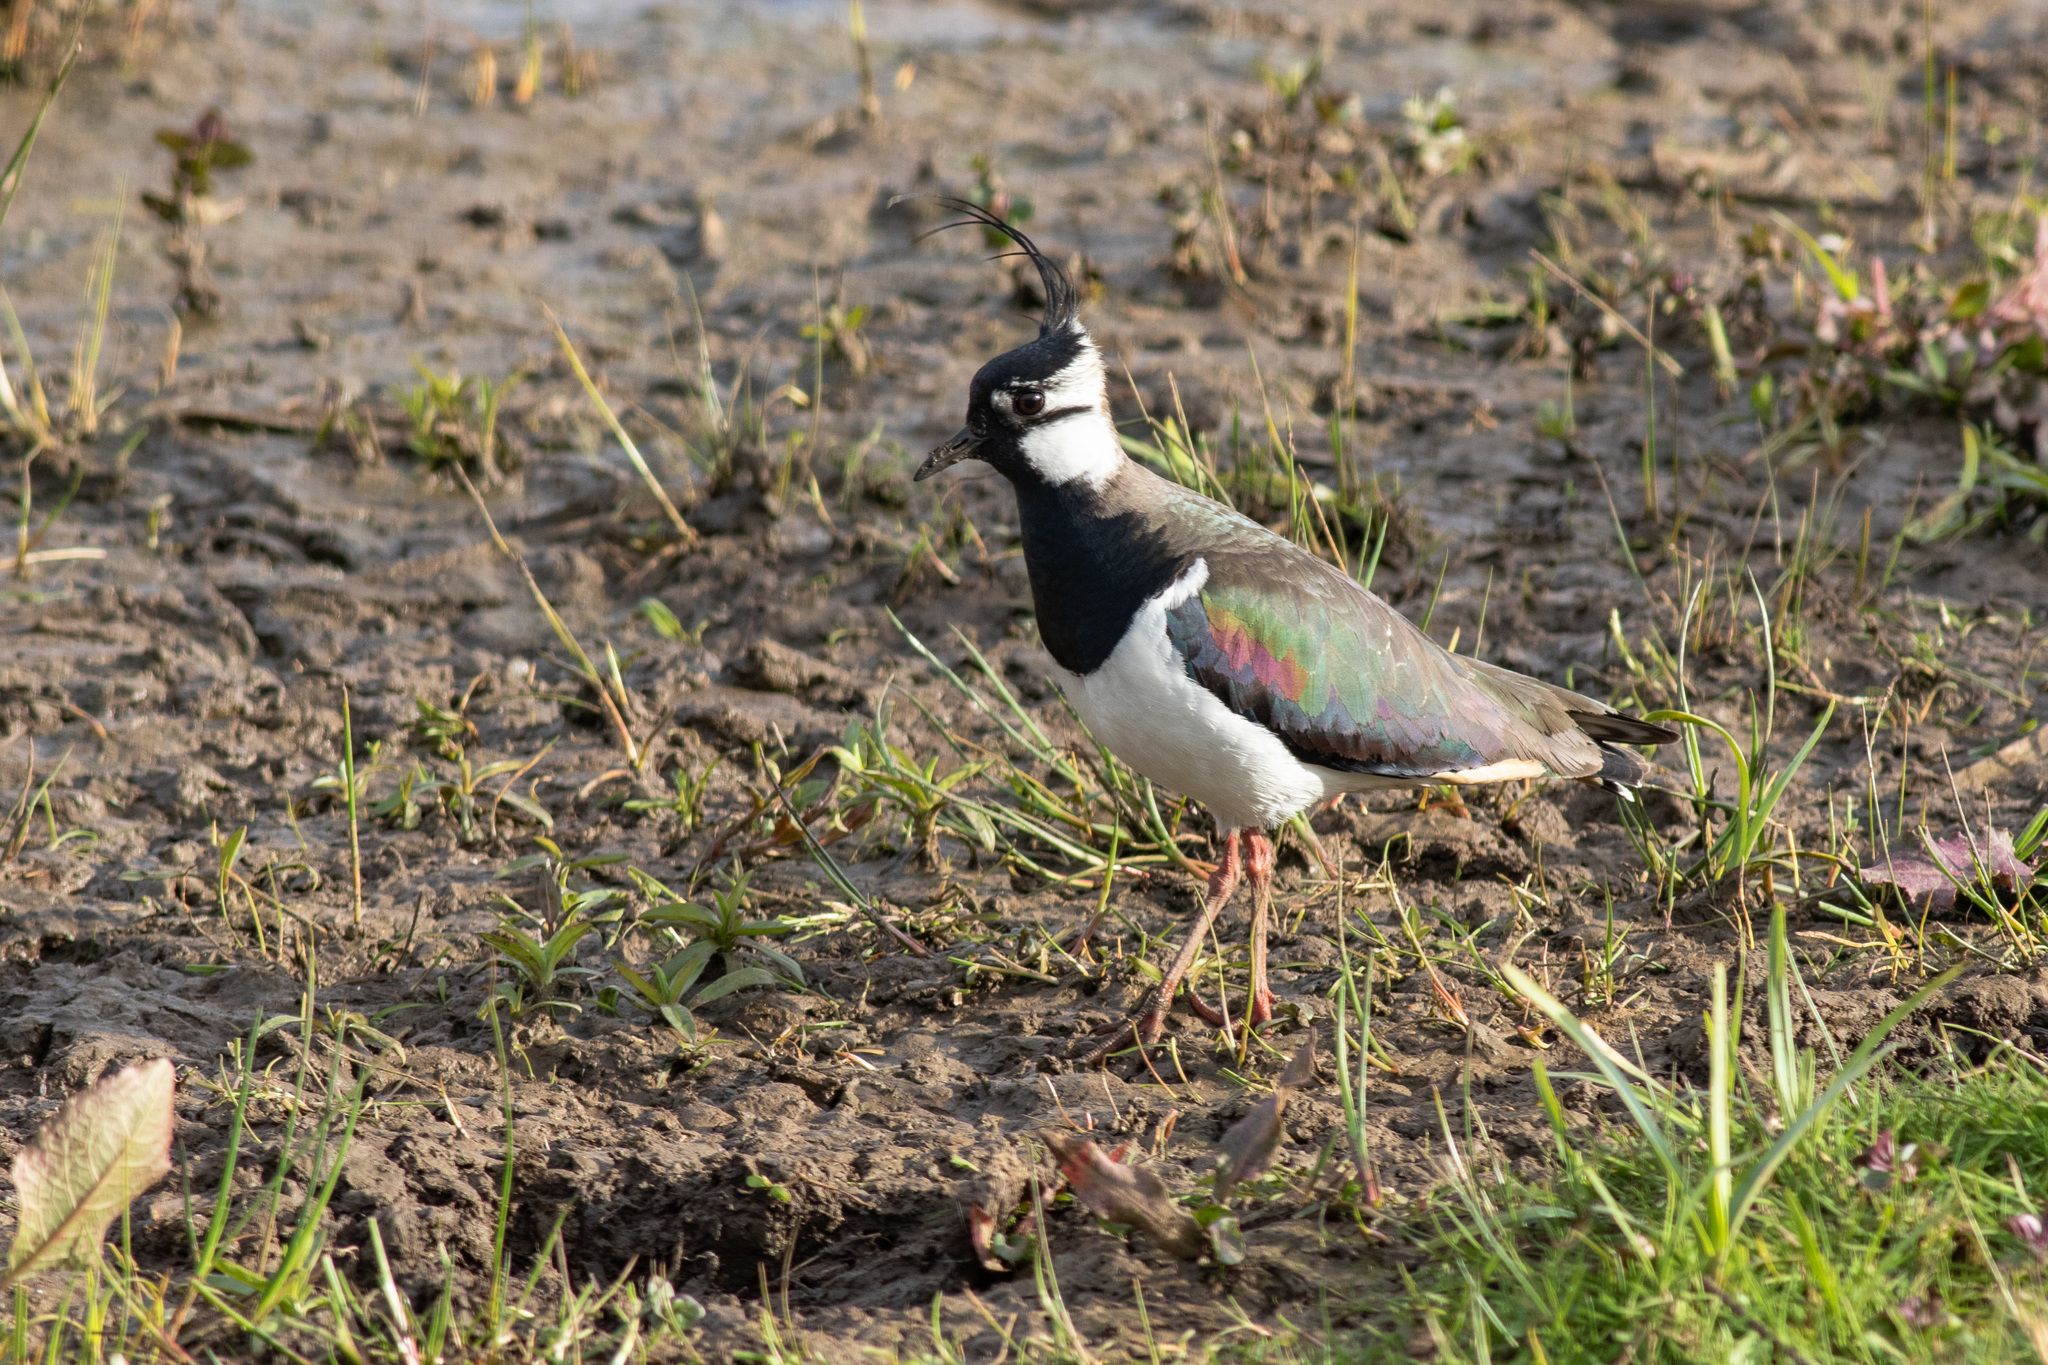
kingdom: Animalia
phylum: Chordata
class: Aves
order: Charadriiformes
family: Charadriidae
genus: Vanellus
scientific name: Vanellus vanellus
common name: Northern lapwing
